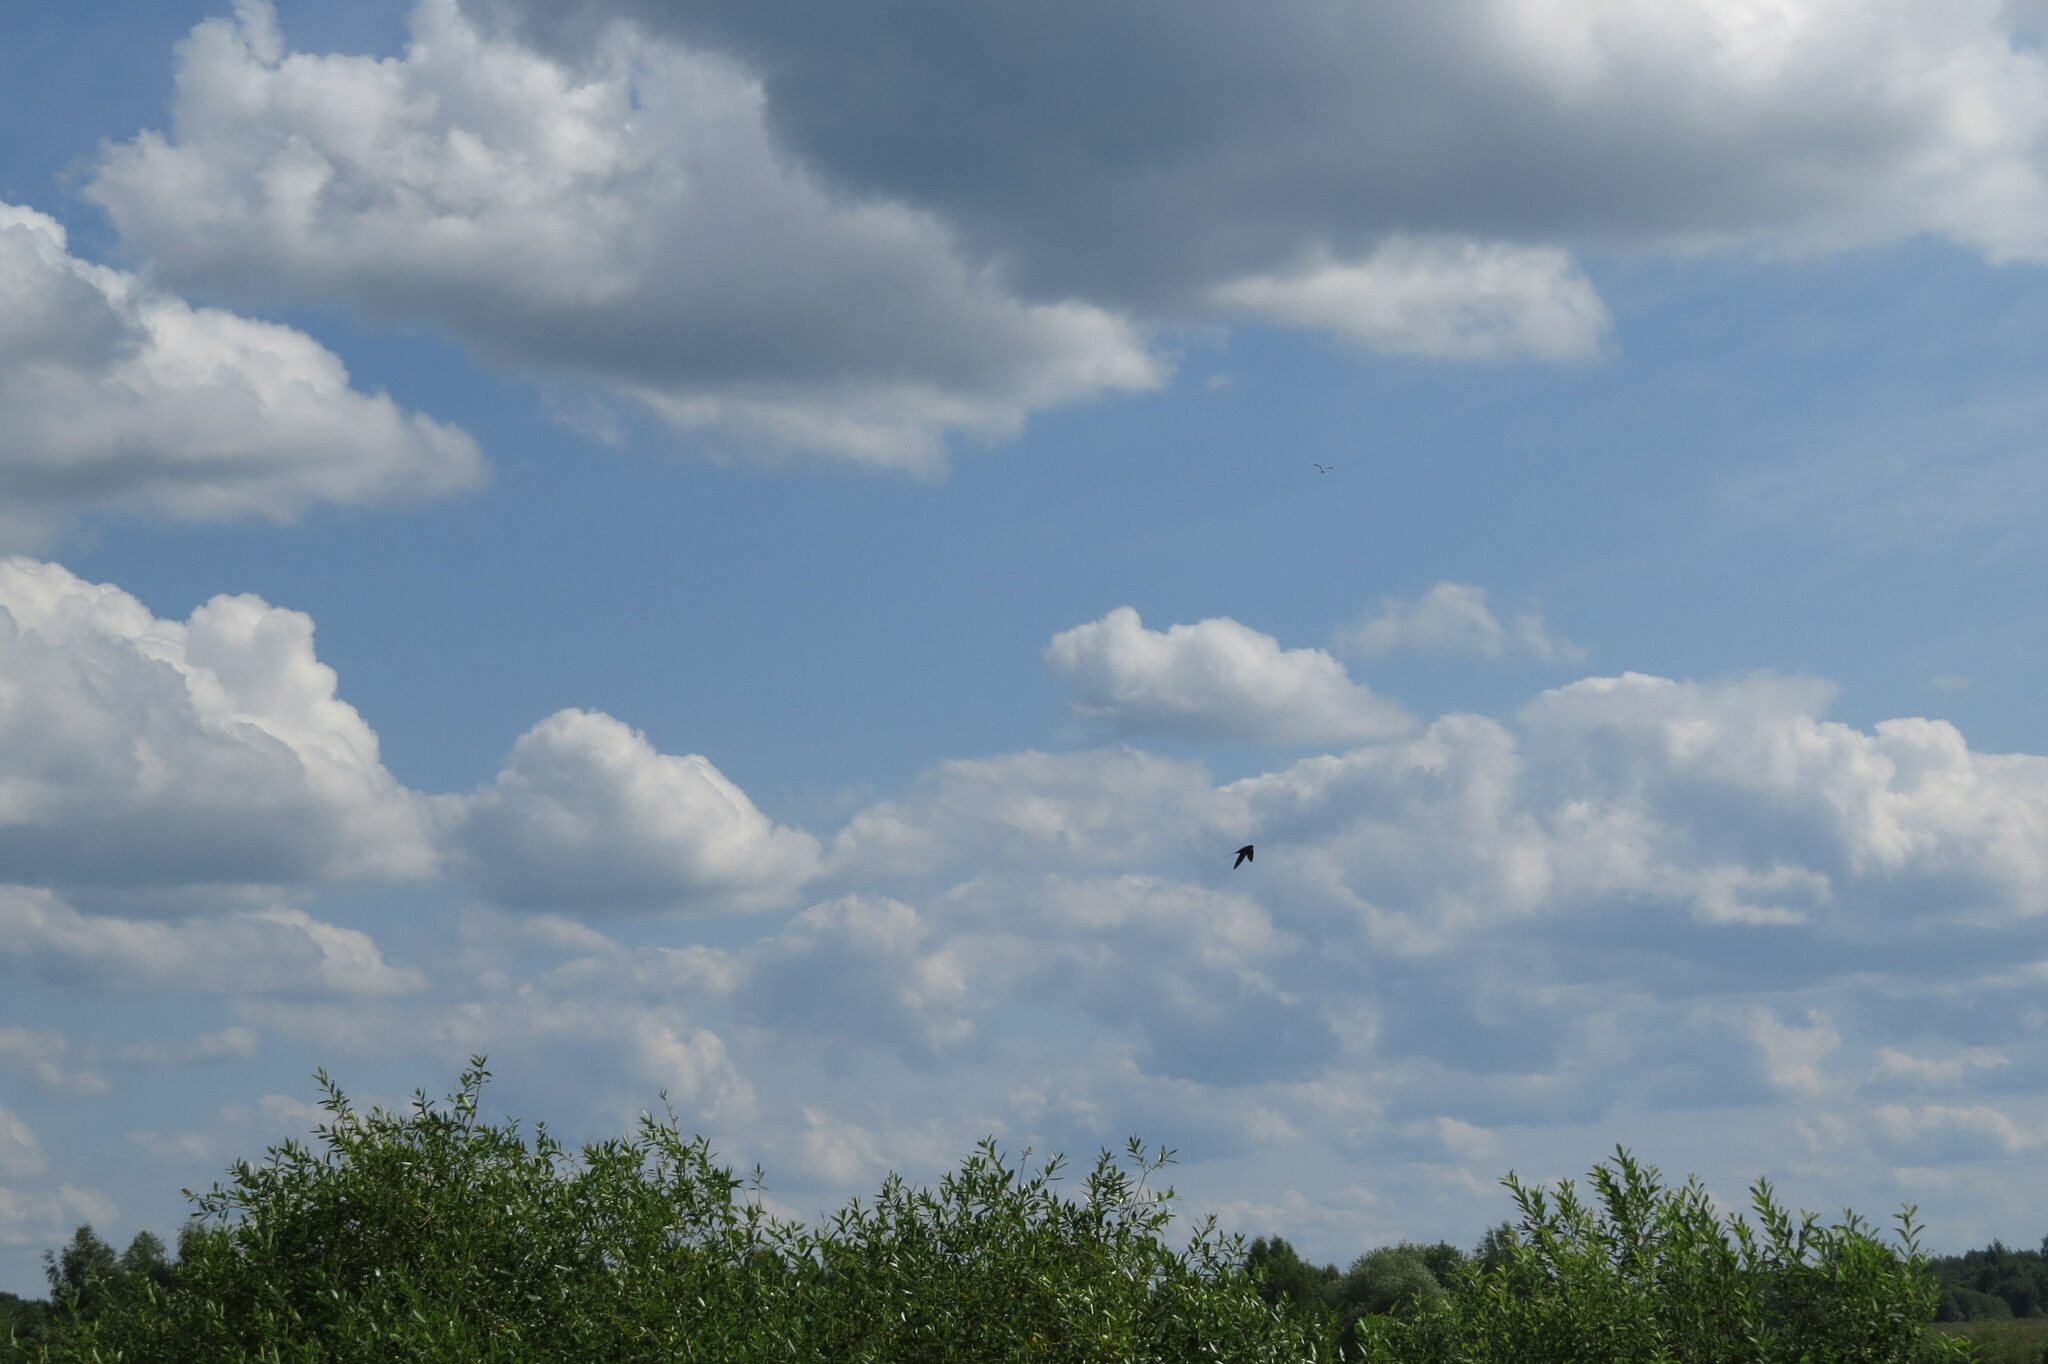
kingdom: Animalia
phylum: Chordata
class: Aves
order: Passeriformes
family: Hirundinidae
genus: Hirundo
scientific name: Hirundo rustica
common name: Barn swallow
